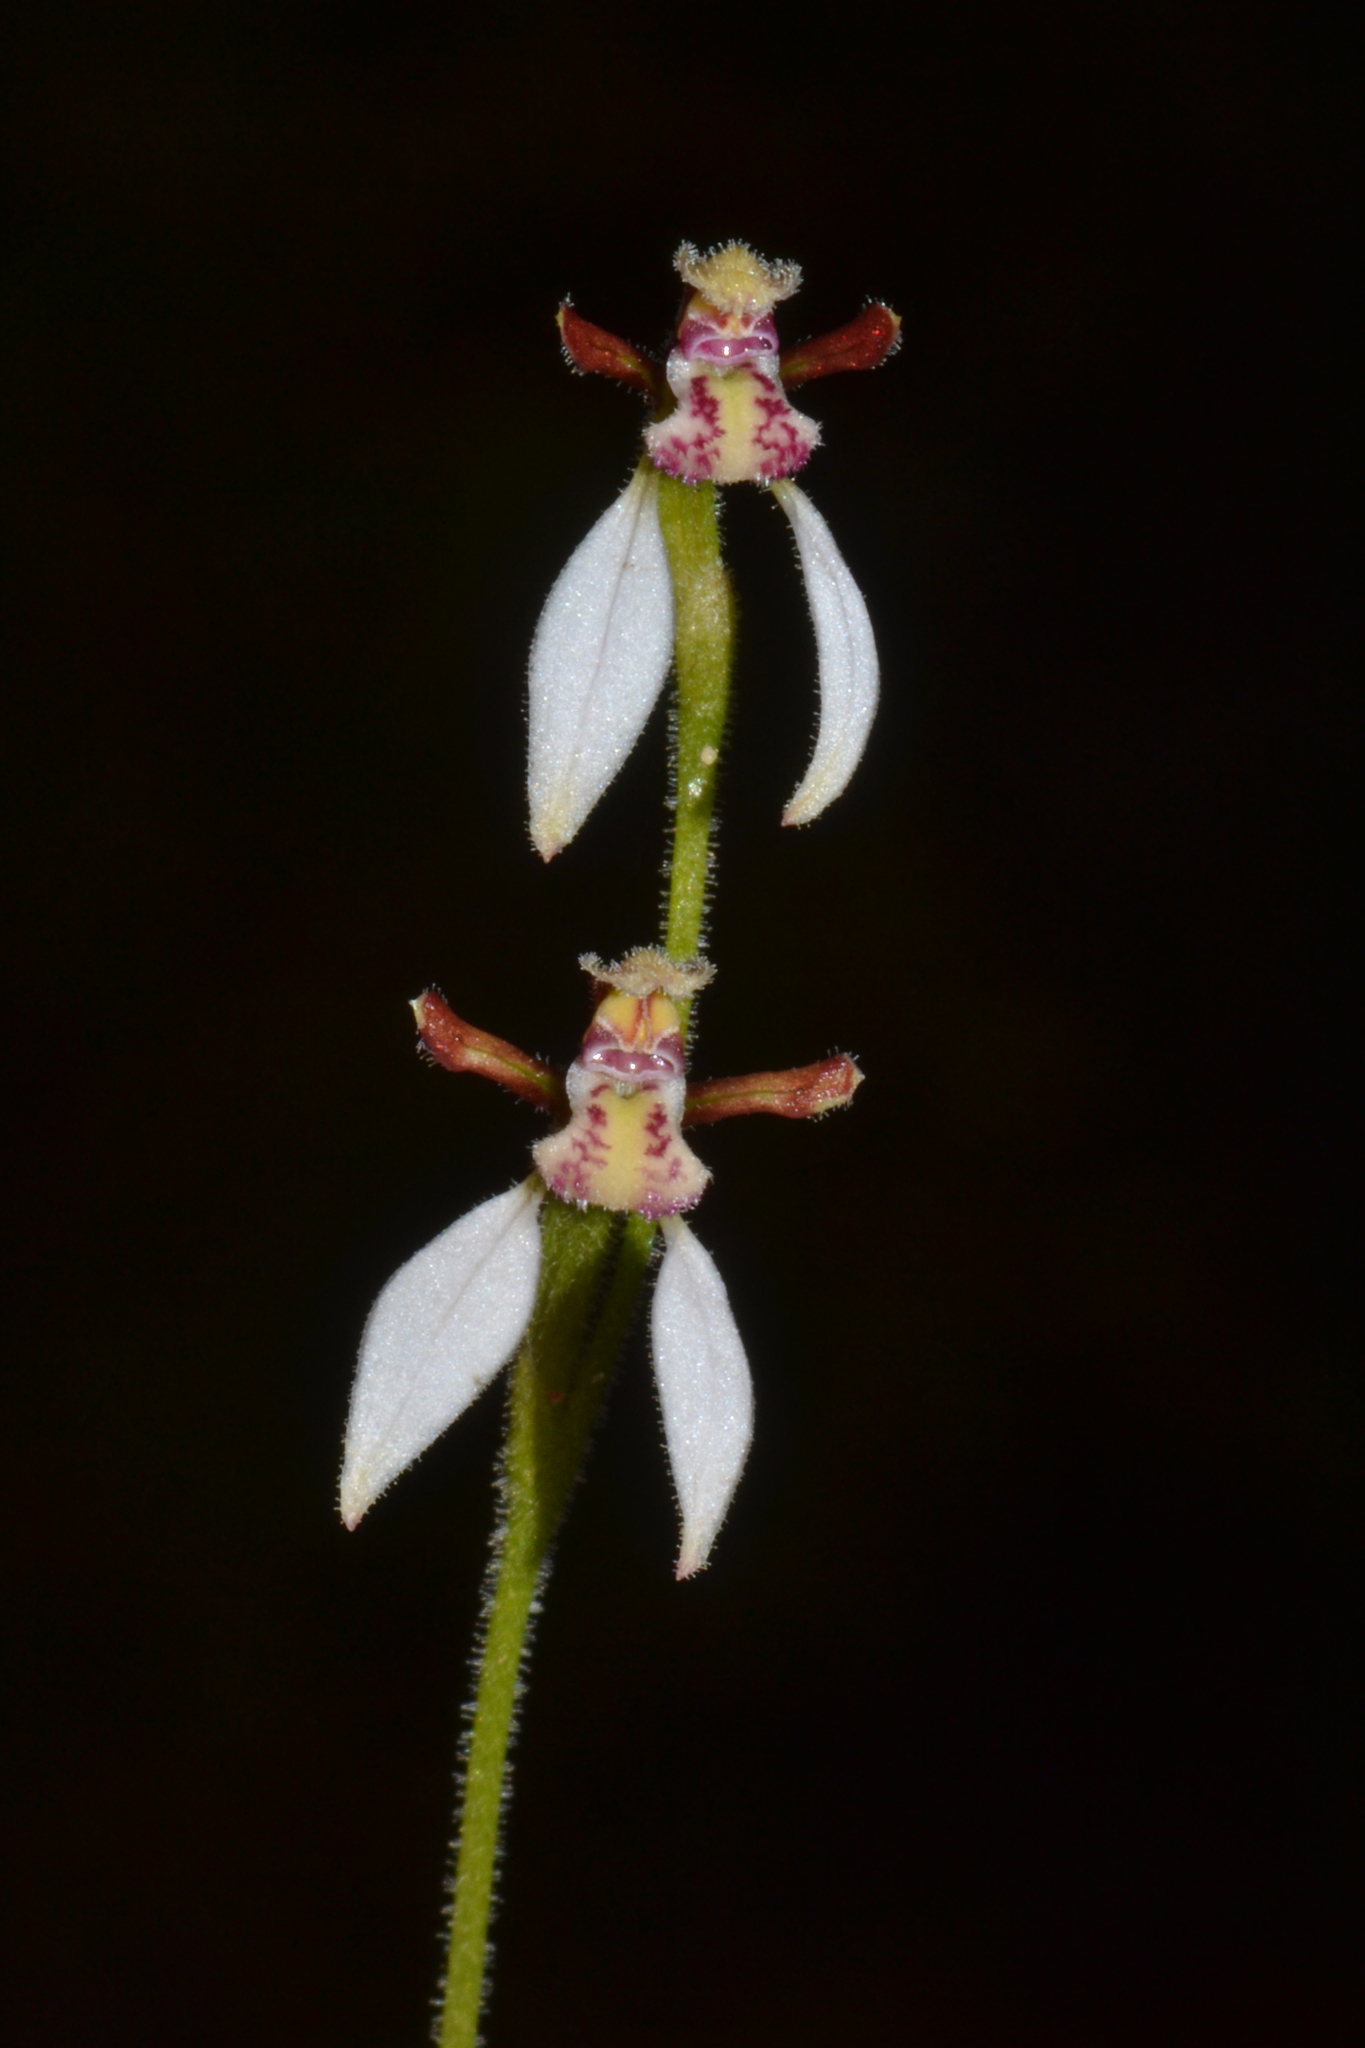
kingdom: Plantae
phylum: Tracheophyta
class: Liliopsida
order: Asparagales
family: Orchidaceae
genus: Eriochilus
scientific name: Eriochilus dilatatus
